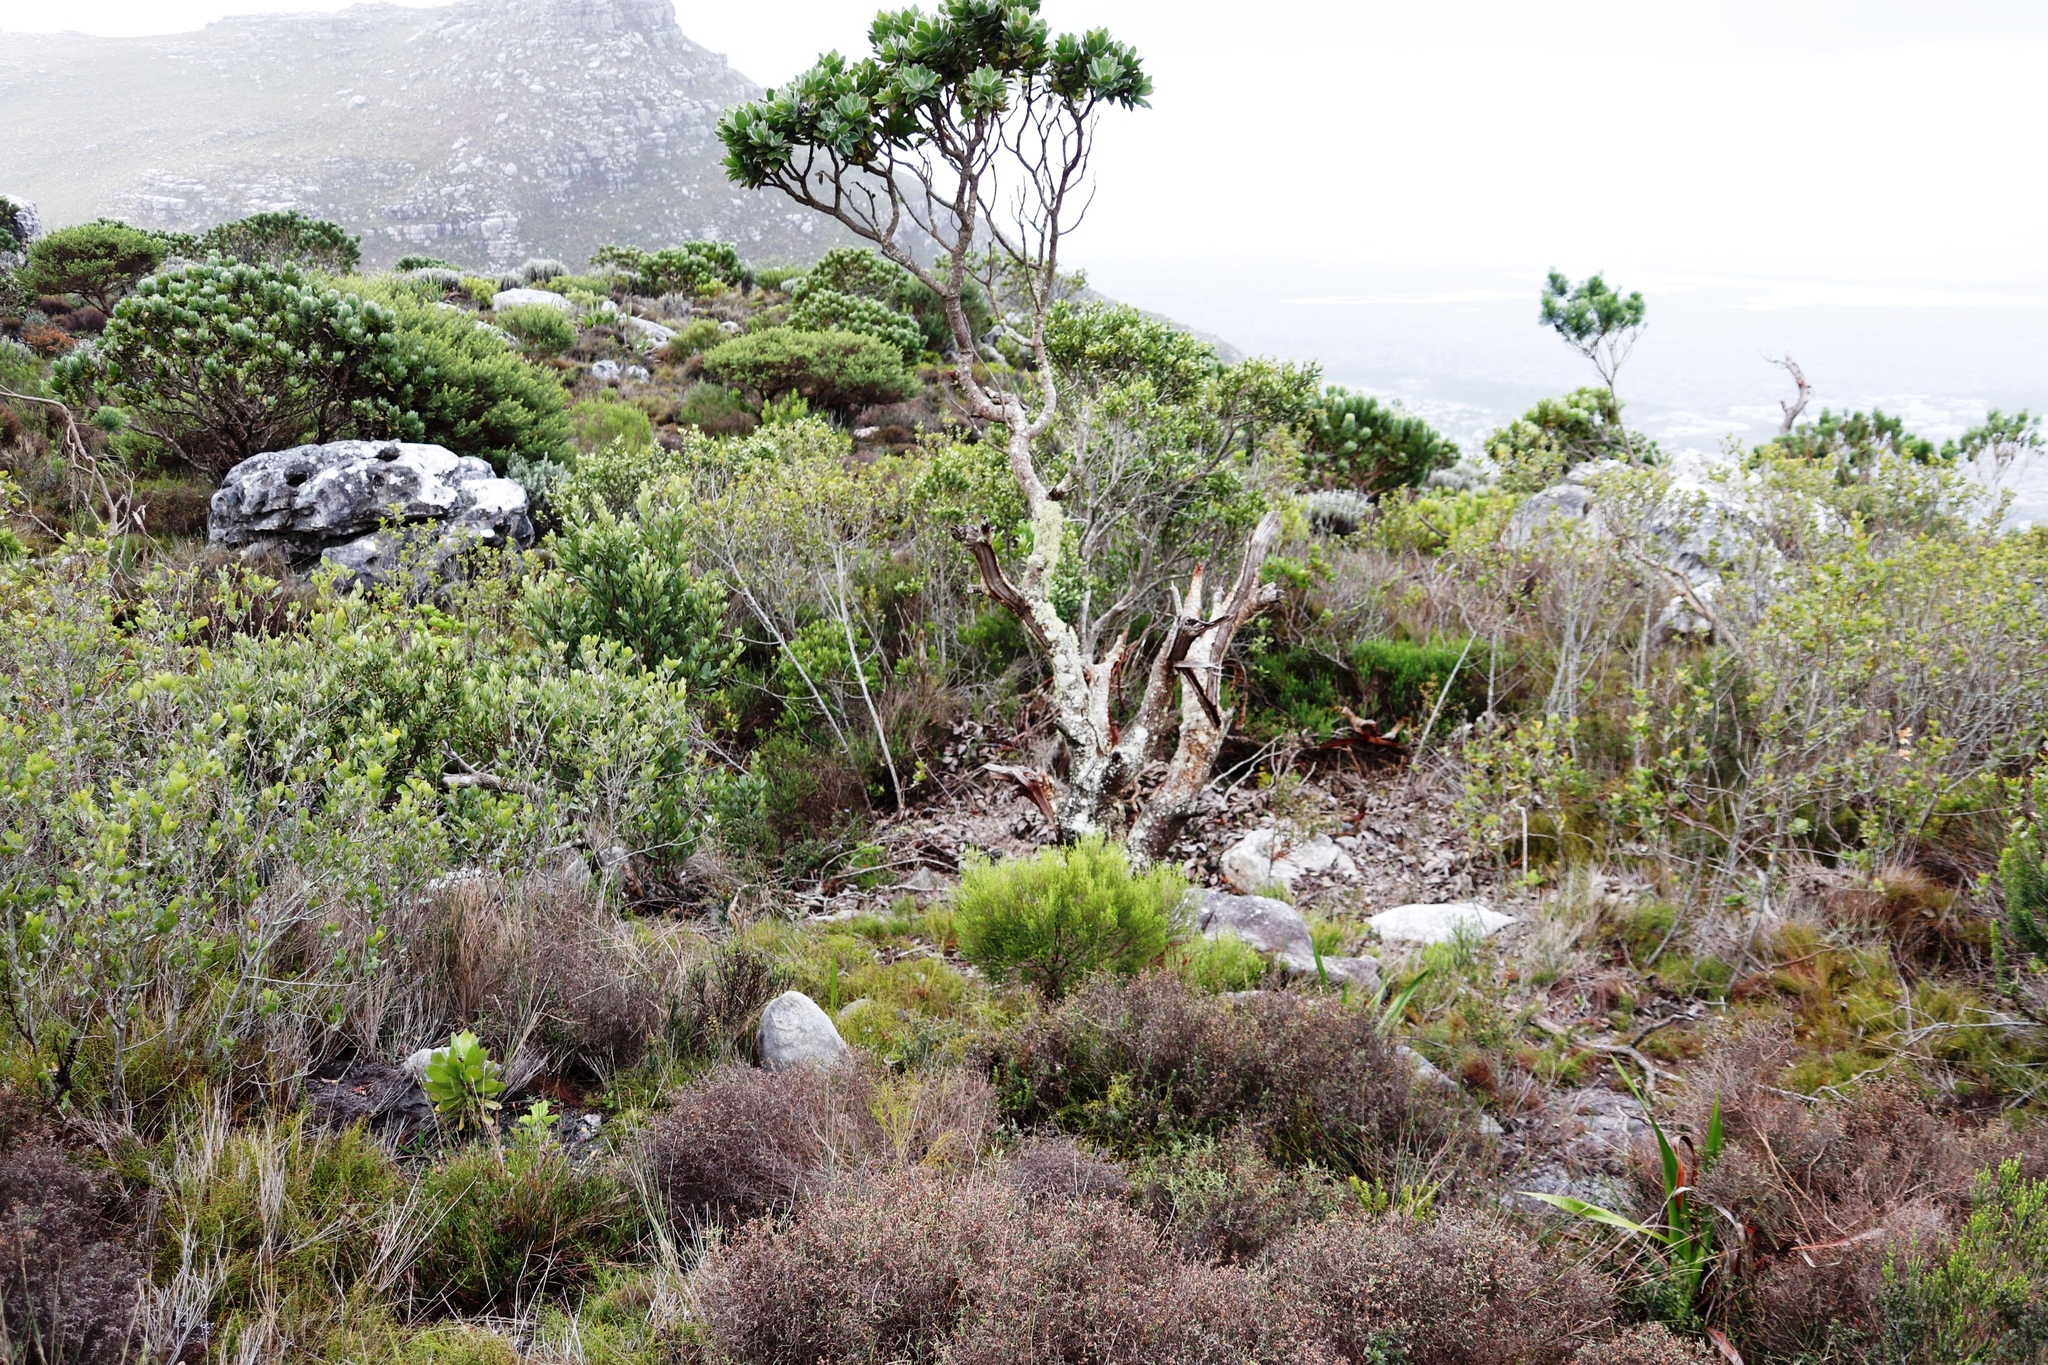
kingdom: Plantae
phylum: Tracheophyta
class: Magnoliopsida
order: Proteales
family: Proteaceae
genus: Leucospermum
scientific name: Leucospermum conocarpodendron
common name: Tree pincushion
